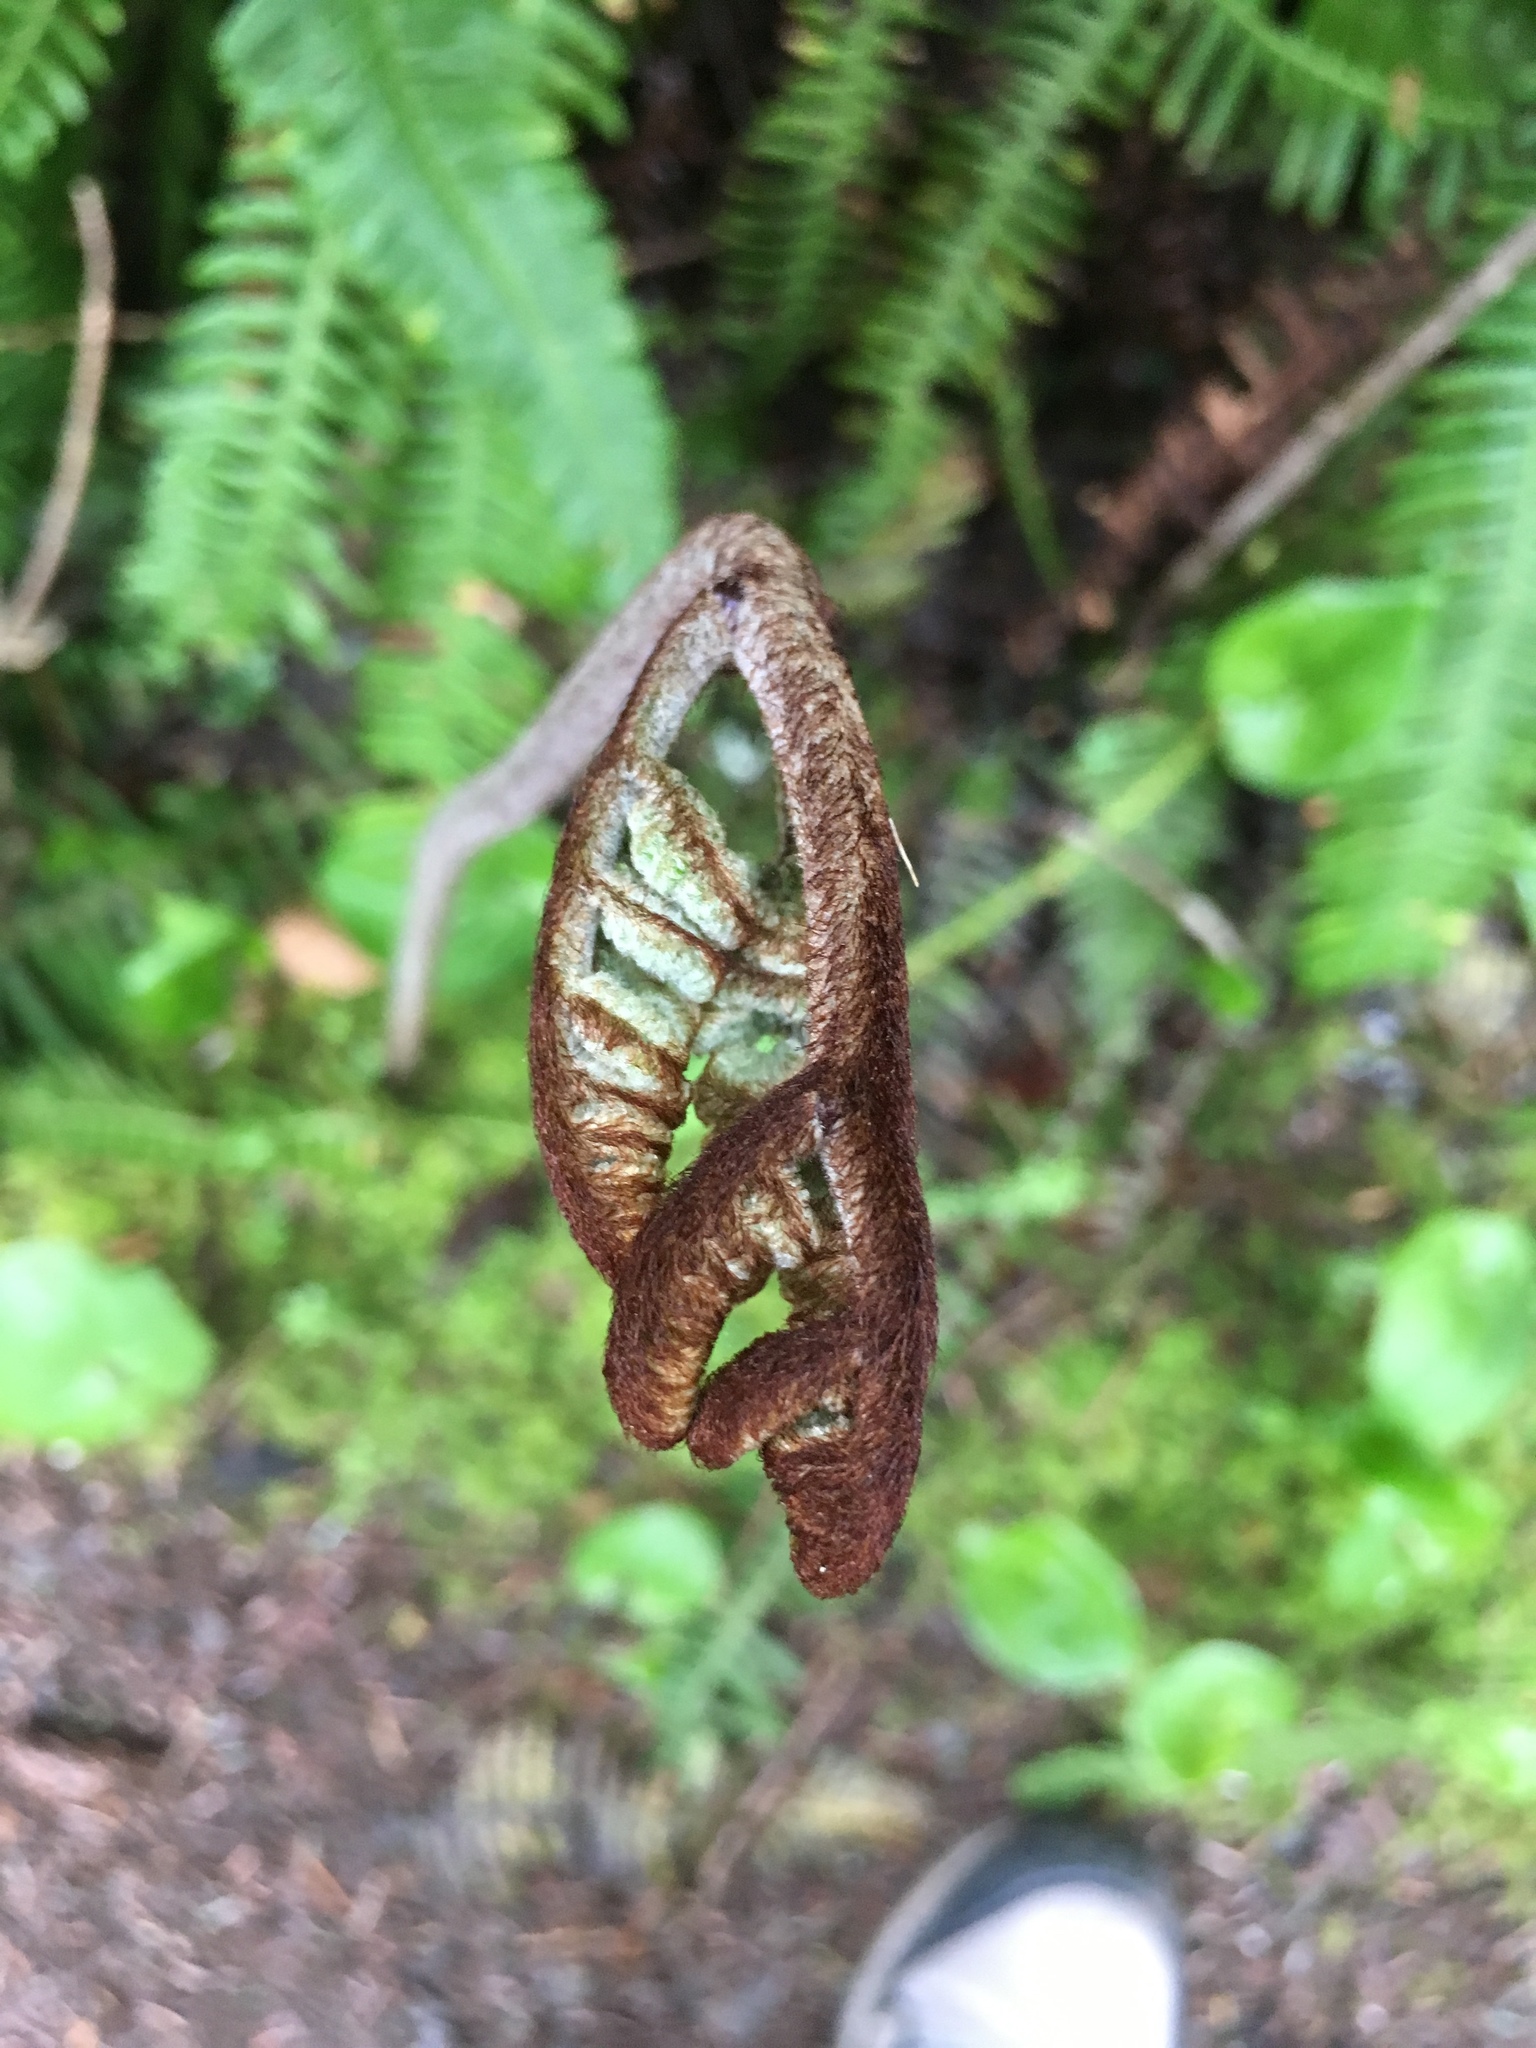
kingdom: Plantae
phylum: Tracheophyta
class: Polypodiopsida
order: Polypodiales
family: Dennstaedtiaceae
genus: Pteridium
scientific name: Pteridium aquilinum
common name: Bracken
